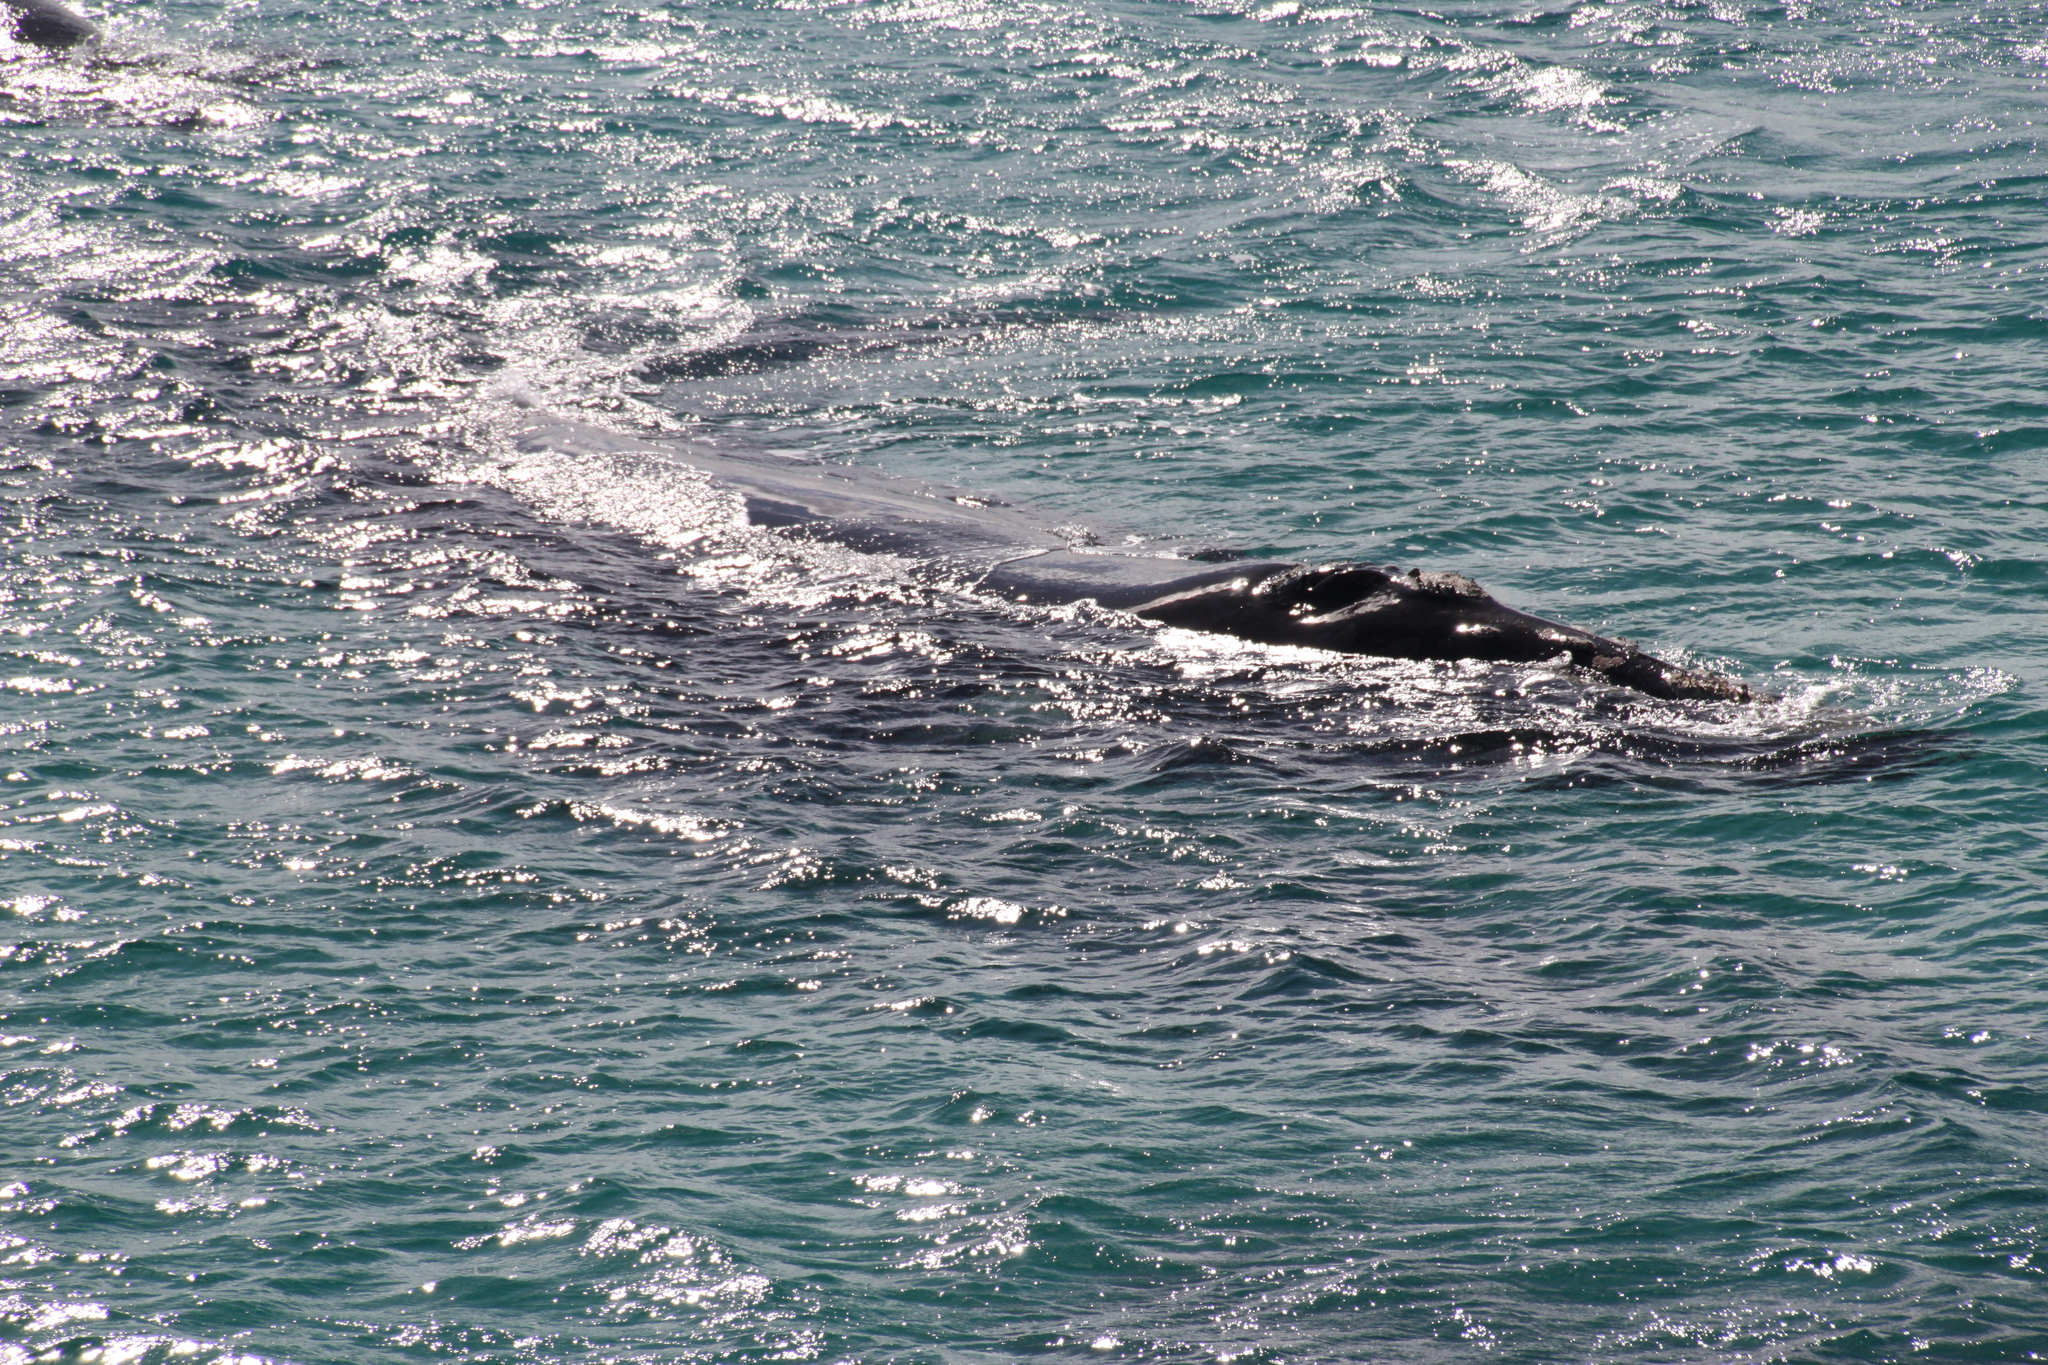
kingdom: Animalia
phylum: Chordata
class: Mammalia
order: Cetacea
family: Balaenidae
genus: Eubalaena
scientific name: Eubalaena australis
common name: Southern right whale
